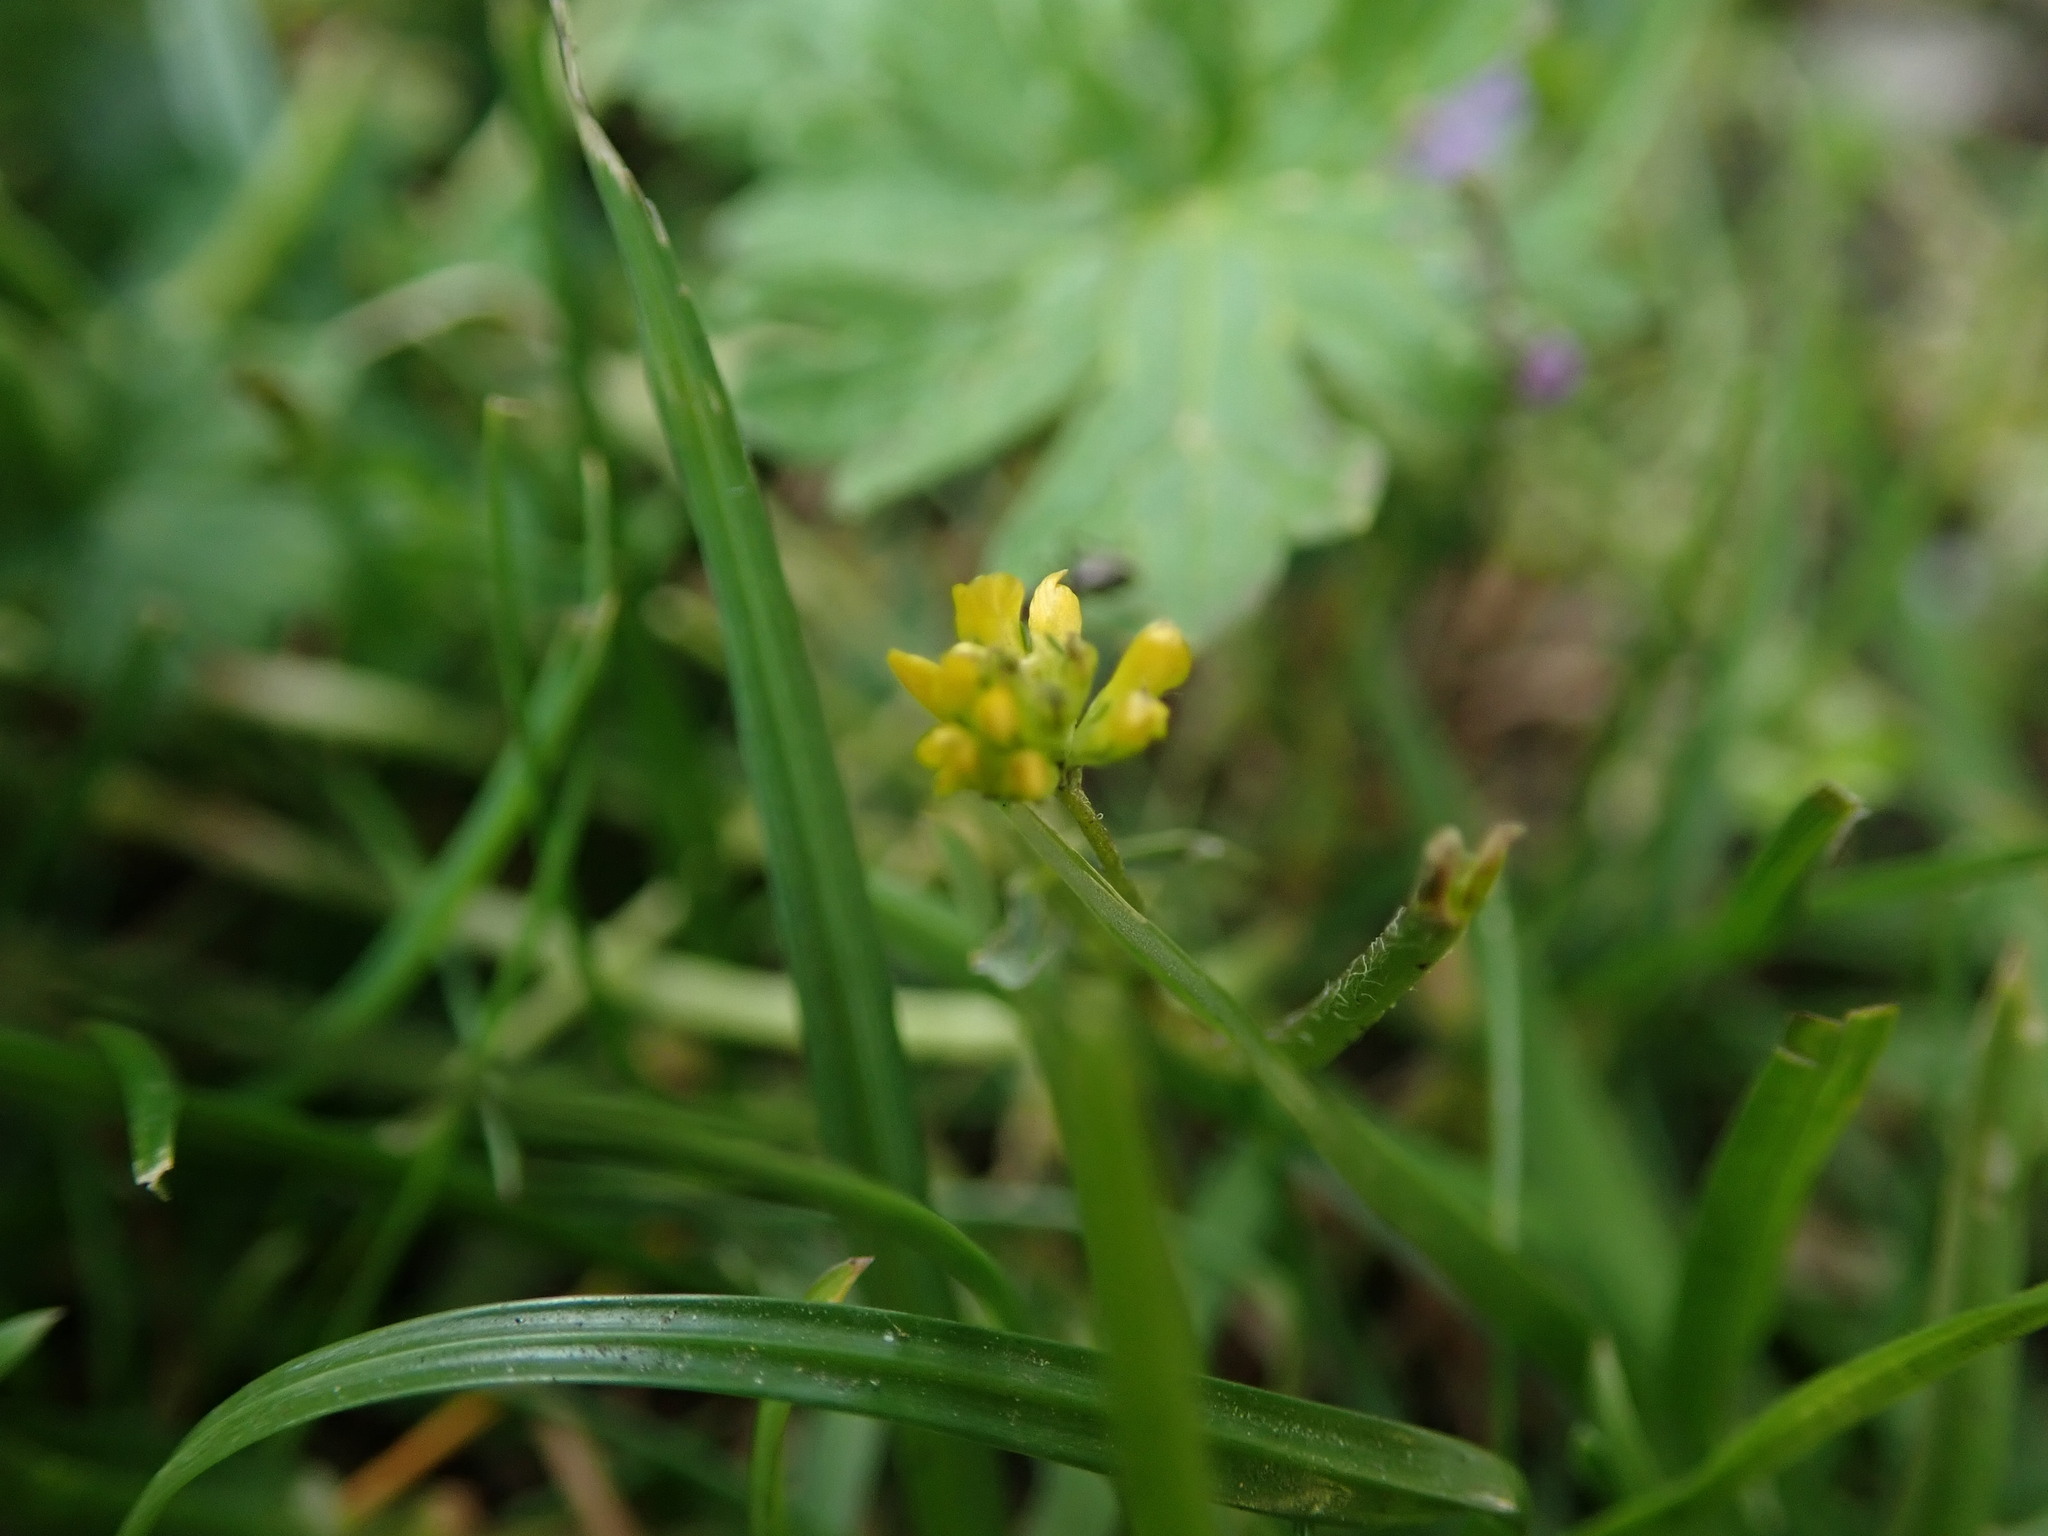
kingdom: Plantae
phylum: Tracheophyta
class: Magnoliopsida
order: Fabales
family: Fabaceae
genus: Trifolium
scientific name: Trifolium dubium
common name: Suckling clover
